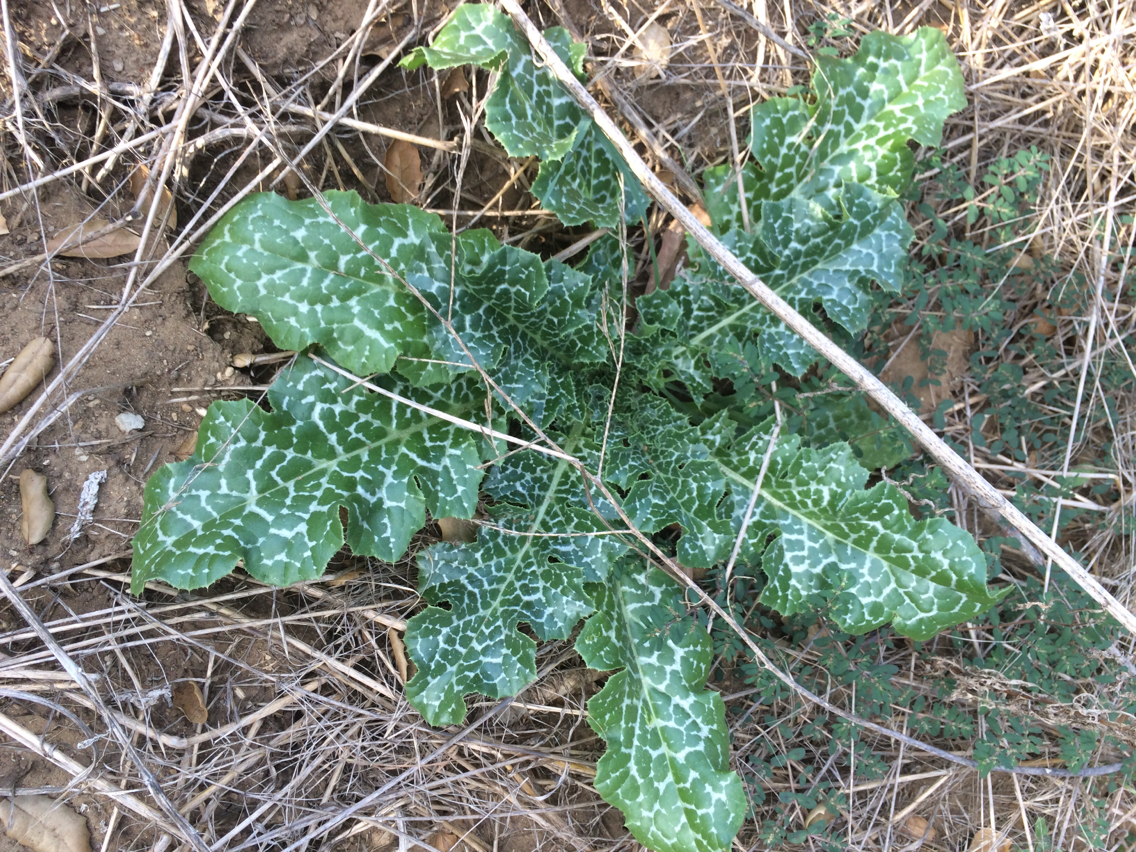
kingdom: Plantae
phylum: Tracheophyta
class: Magnoliopsida
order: Asterales
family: Asteraceae
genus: Silybum
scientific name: Silybum marianum
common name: Milk thistle
